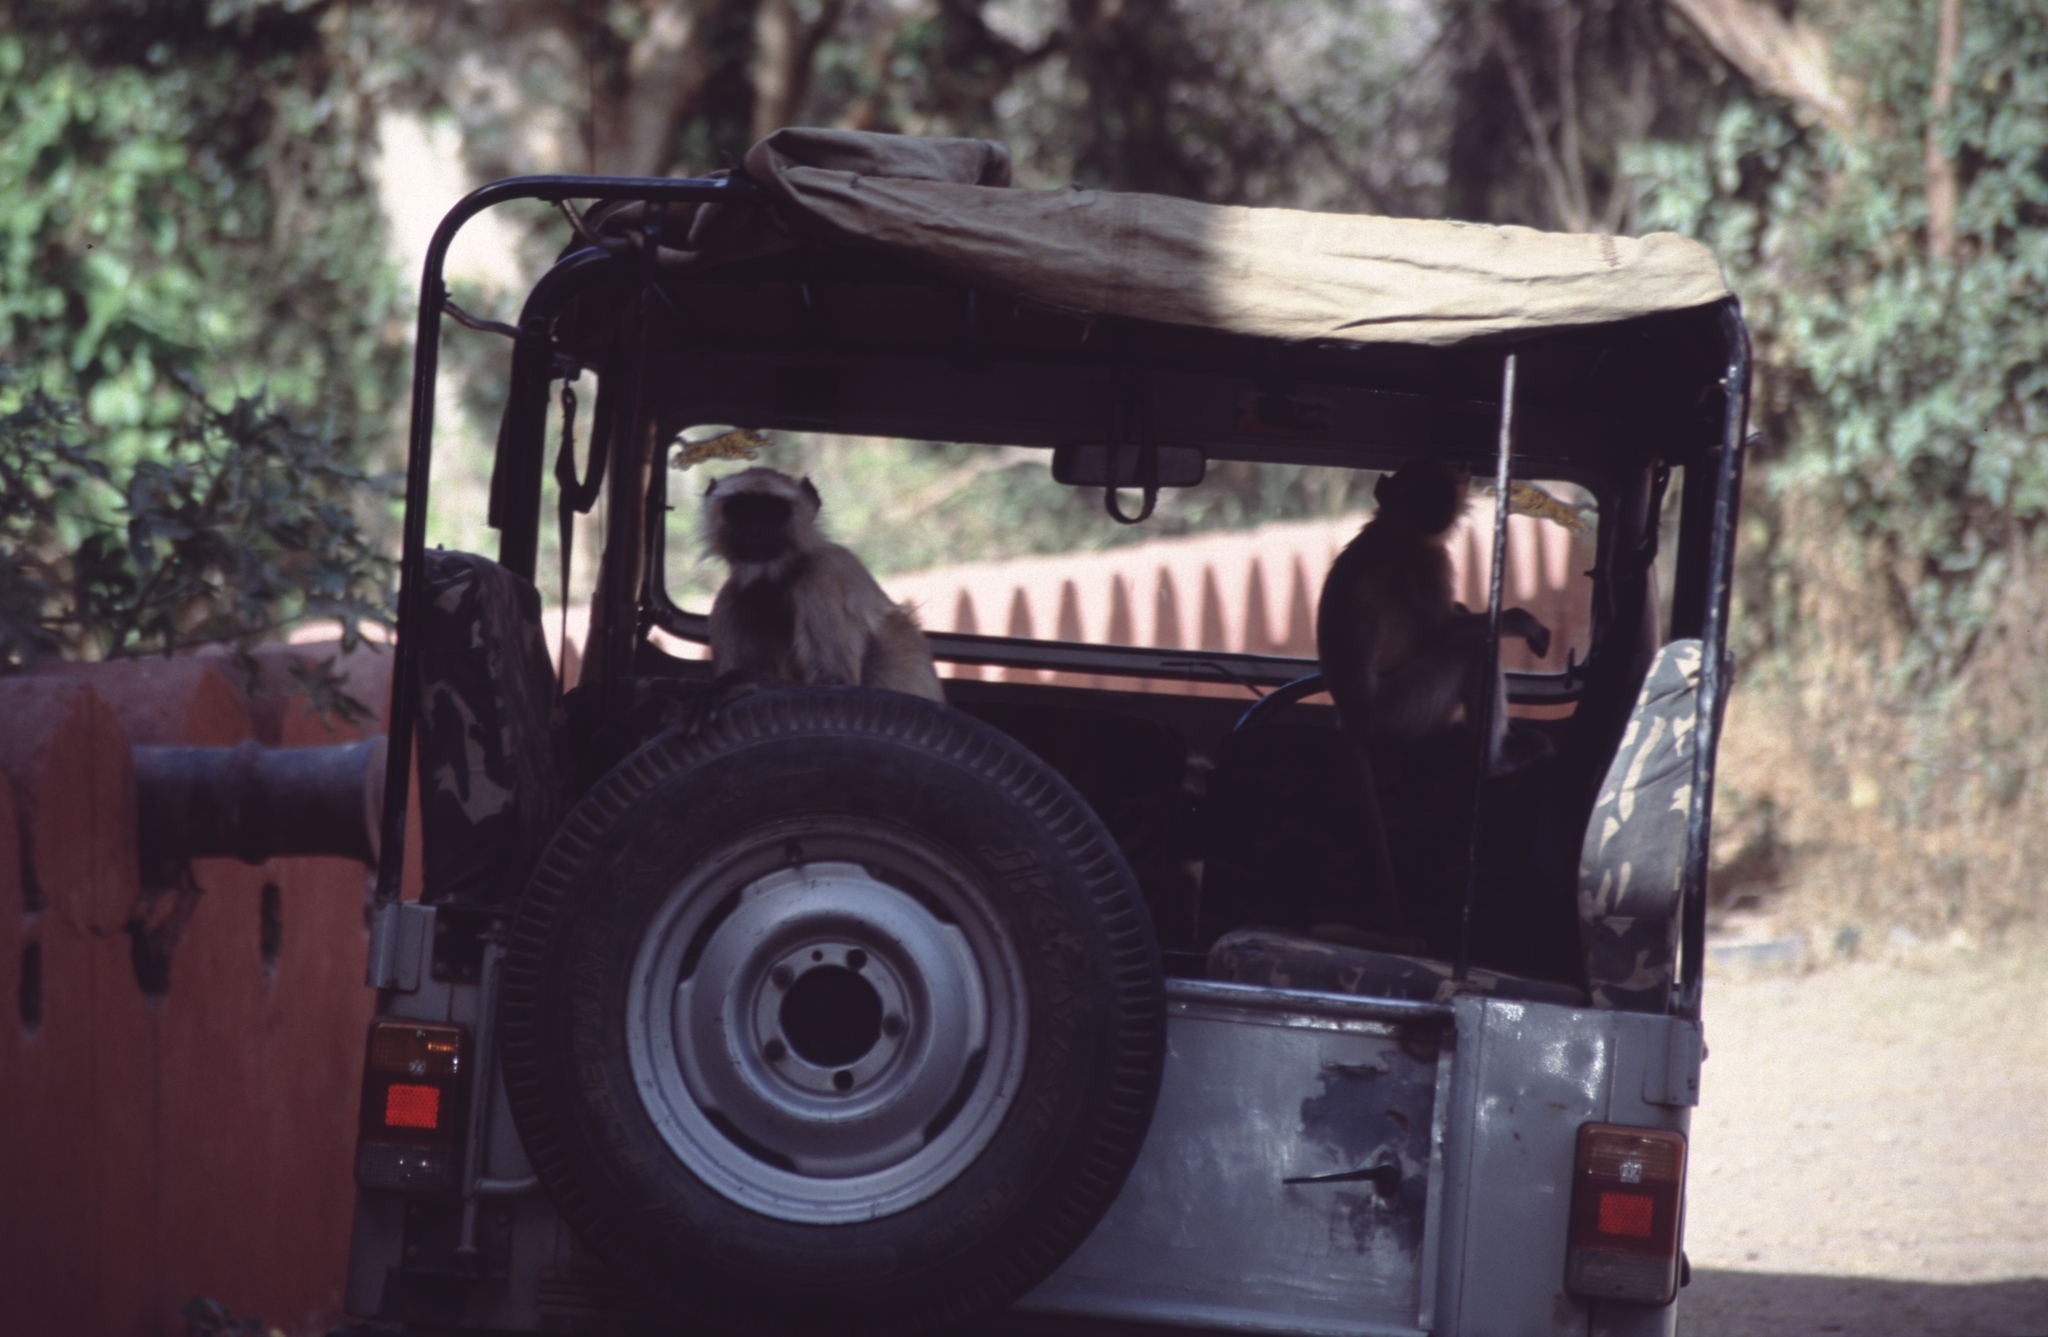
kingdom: Animalia
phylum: Chordata
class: Mammalia
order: Primates
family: Cercopithecidae
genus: Semnopithecus
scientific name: Semnopithecus entellus
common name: Northern plains gray langur
